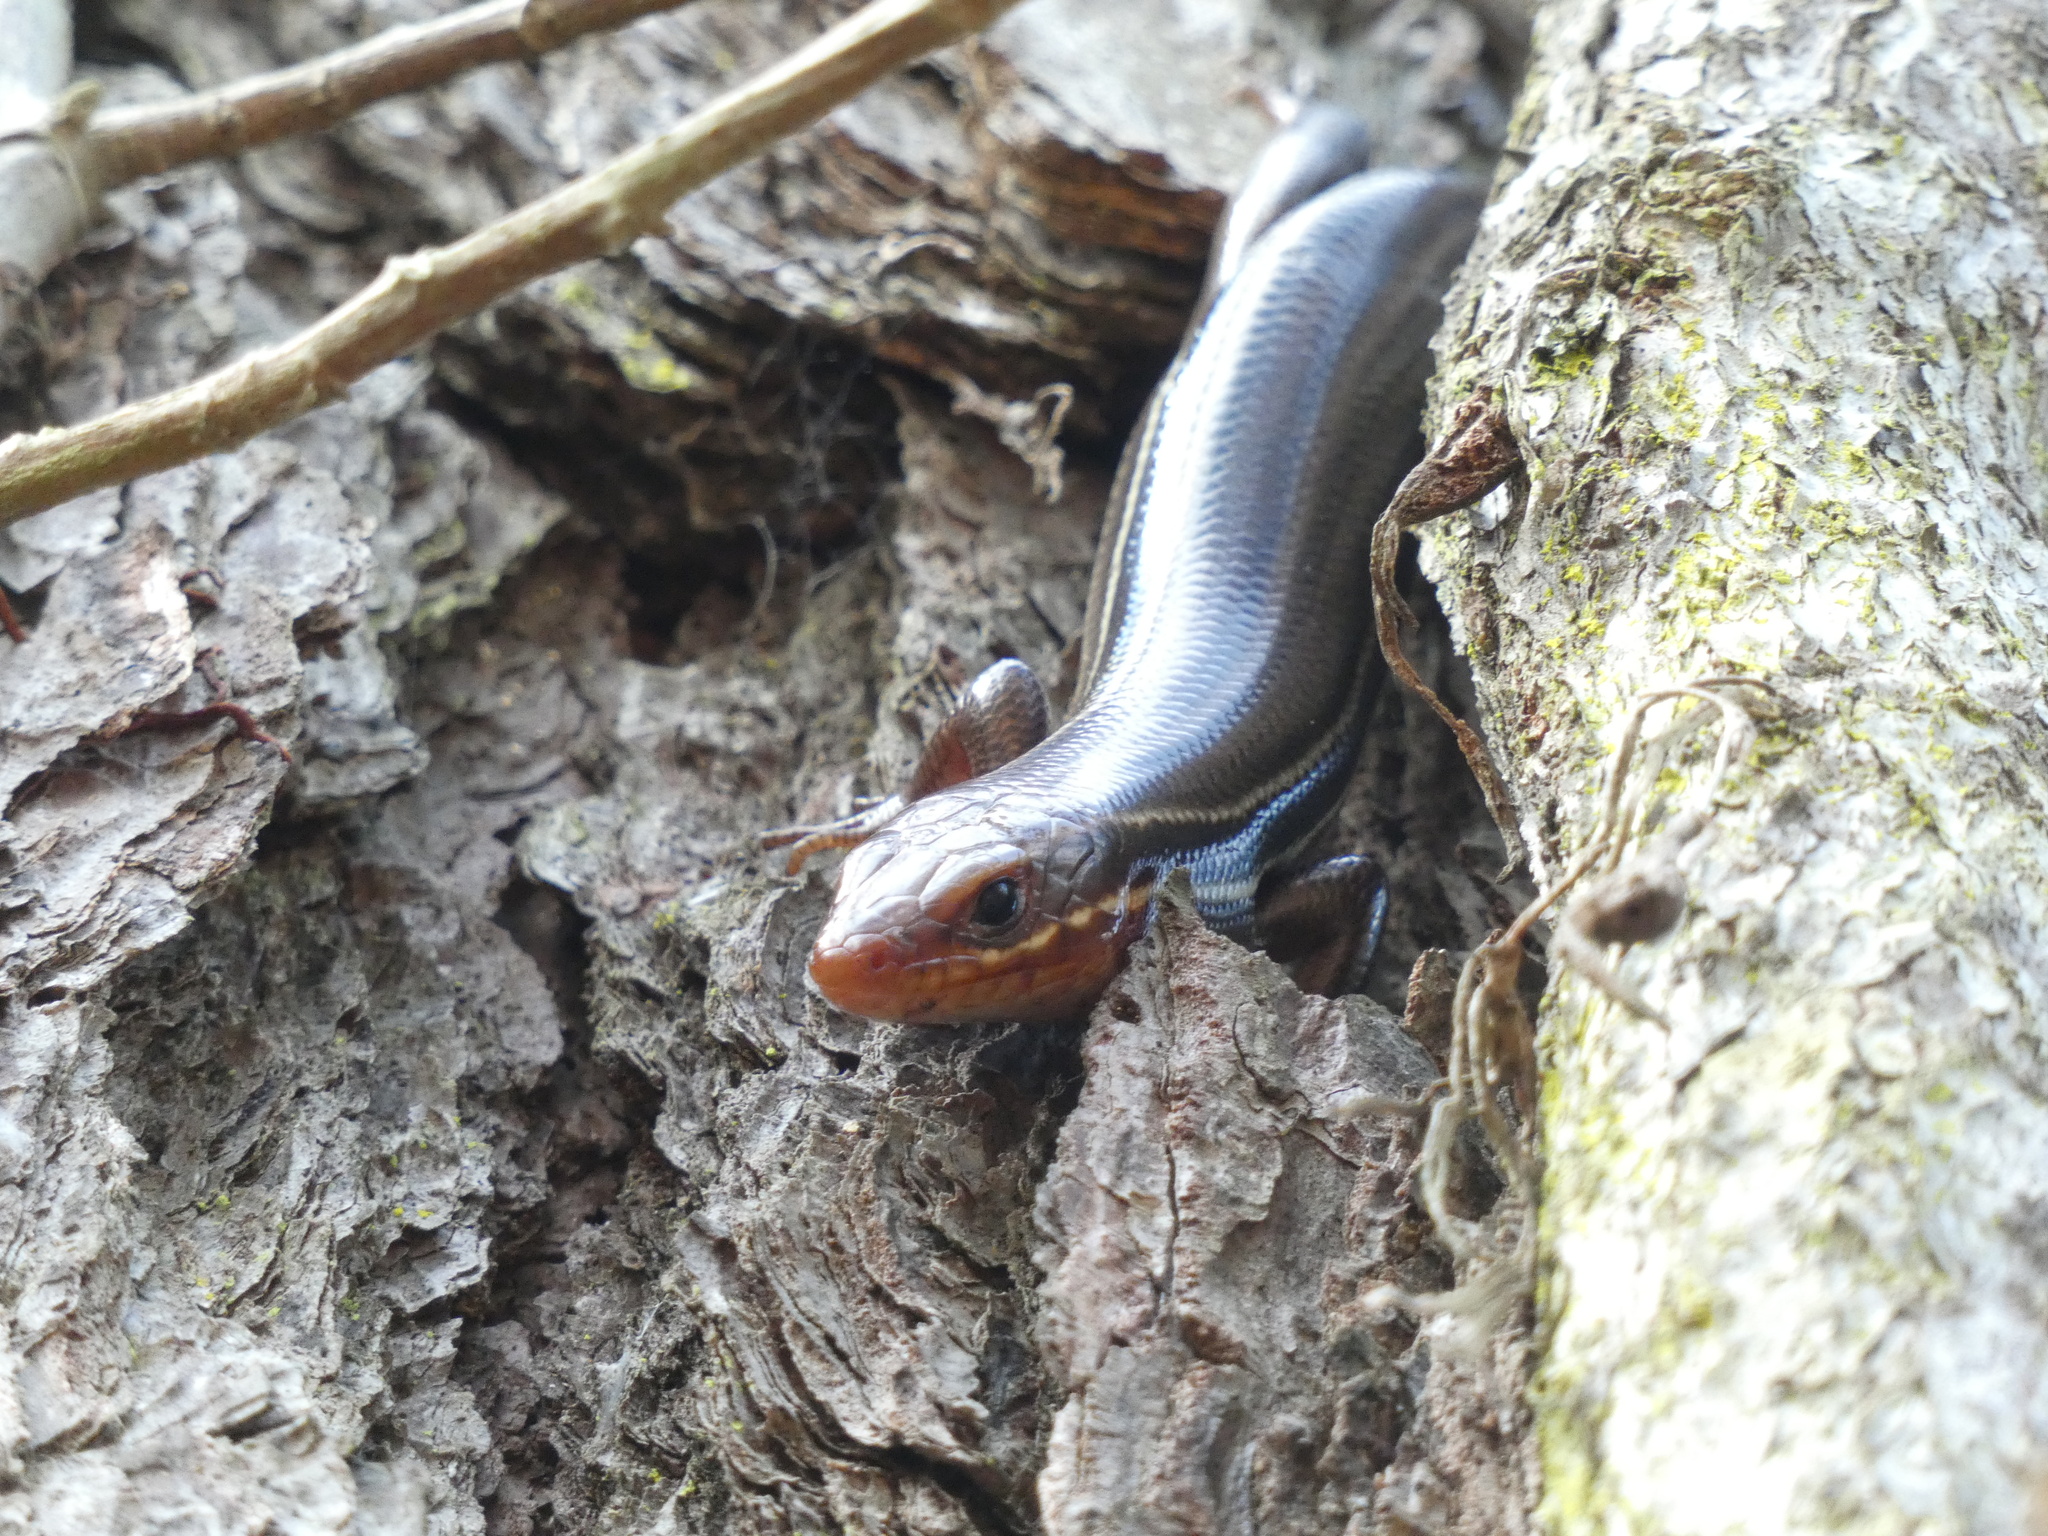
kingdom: Animalia
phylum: Chordata
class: Squamata
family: Scincidae
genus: Plestiodon
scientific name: Plestiodon inexpectatus
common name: Southeastern five-lined skink
